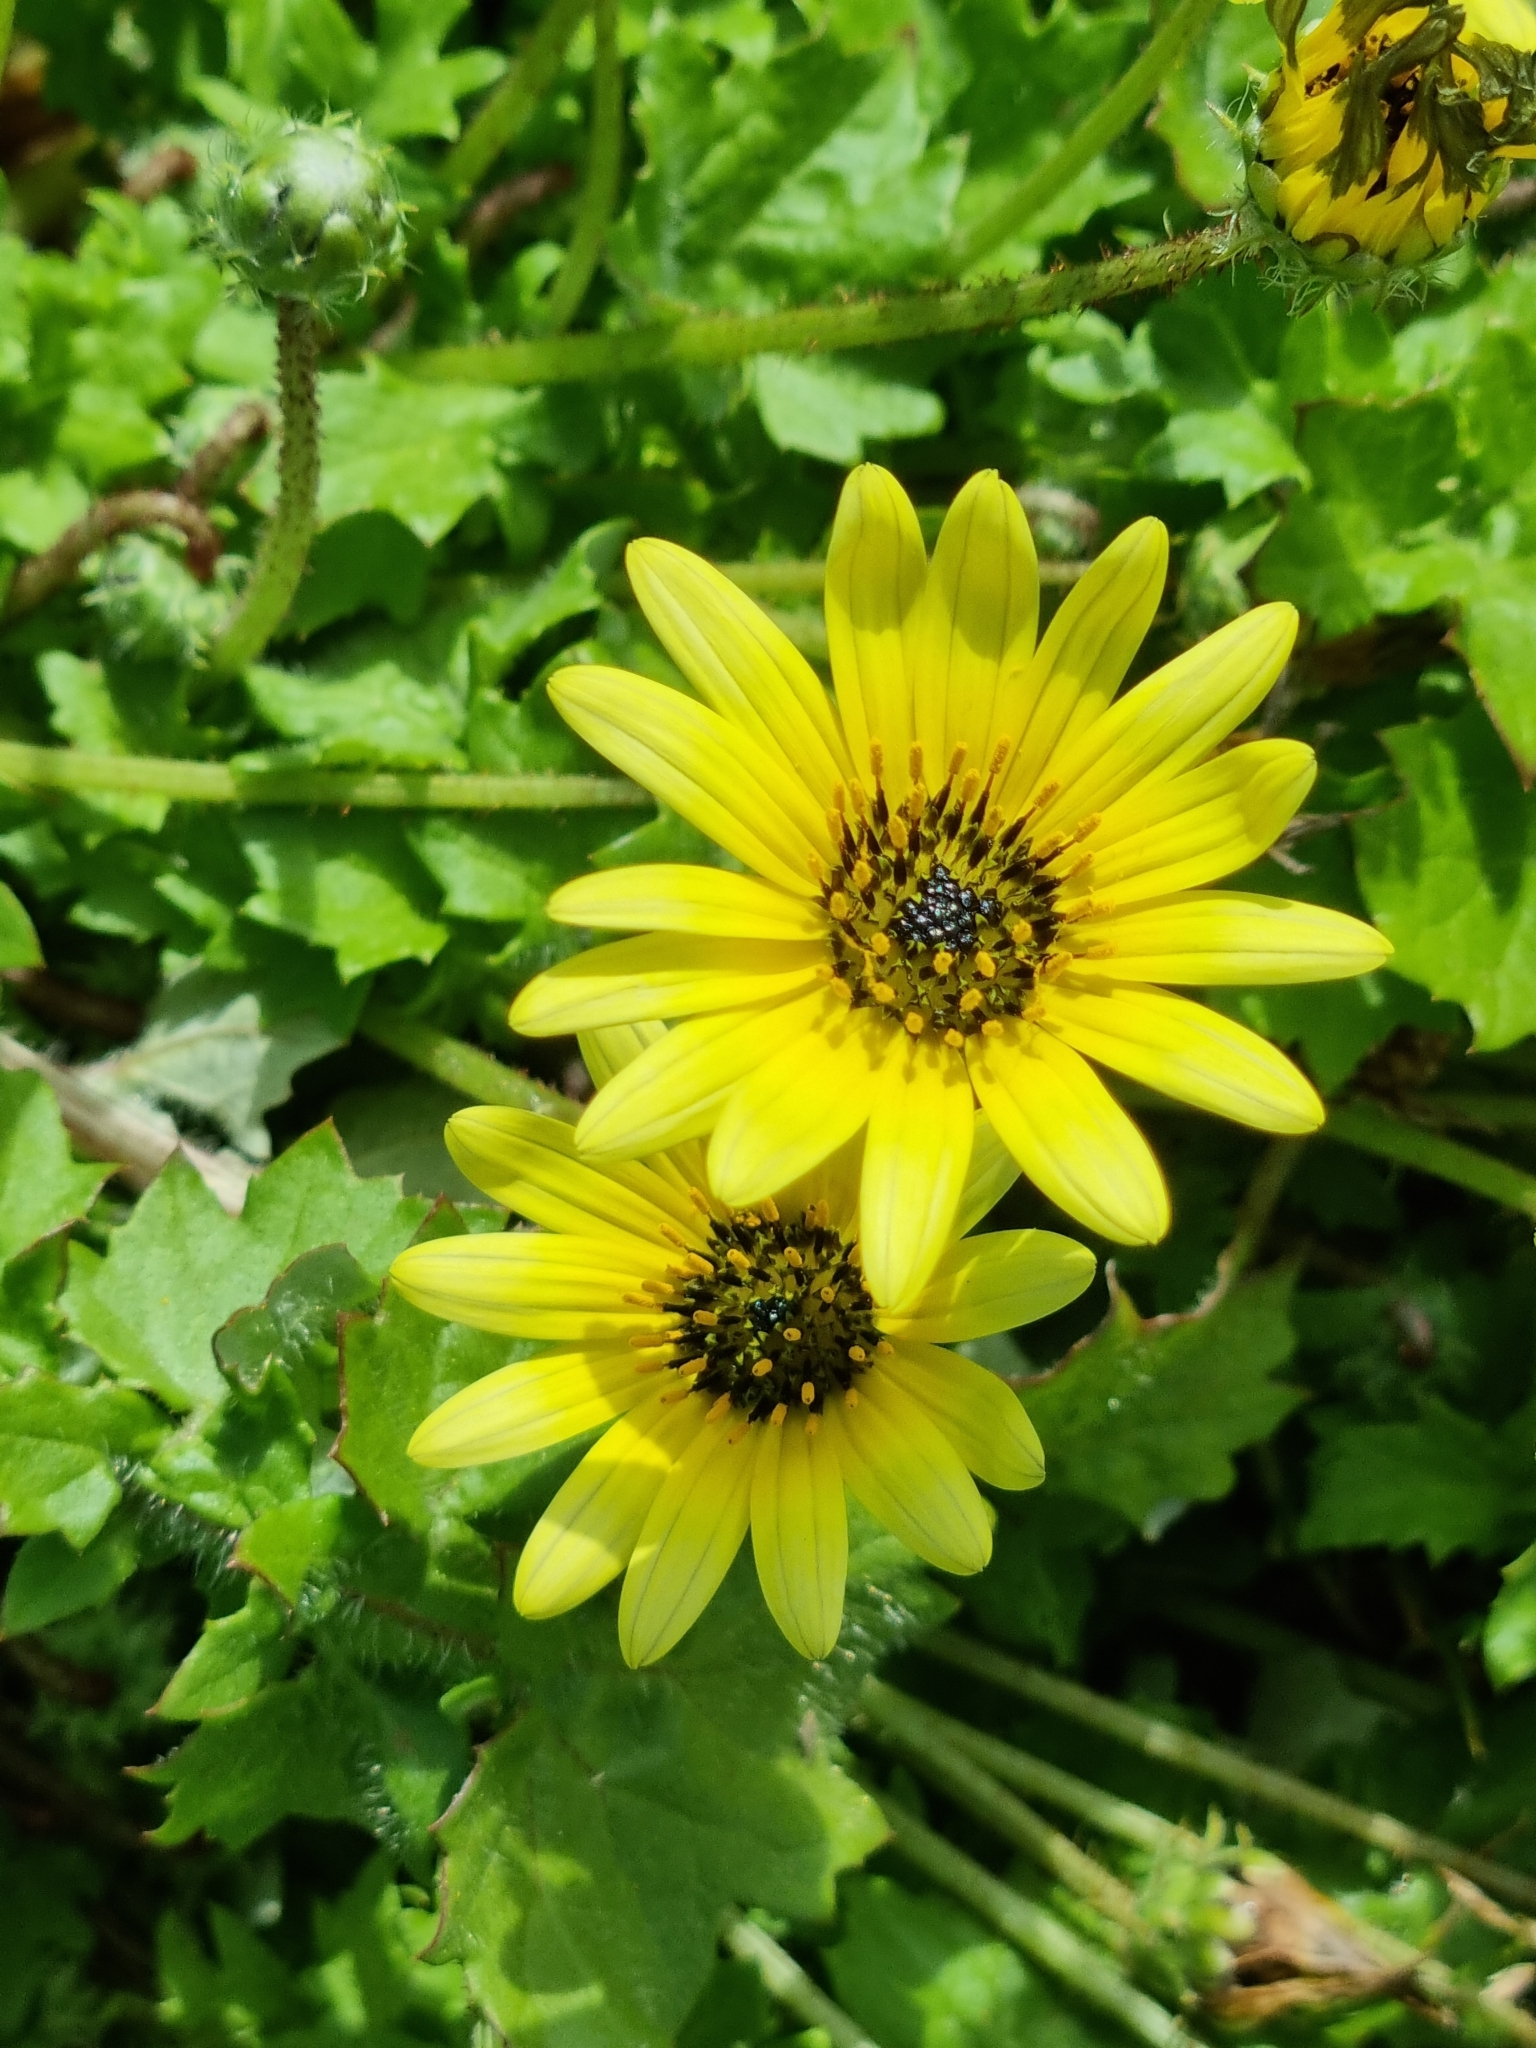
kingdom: Plantae
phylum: Tracheophyta
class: Magnoliopsida
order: Asterales
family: Asteraceae
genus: Arctotheca
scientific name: Arctotheca calendula
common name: Capeweed
